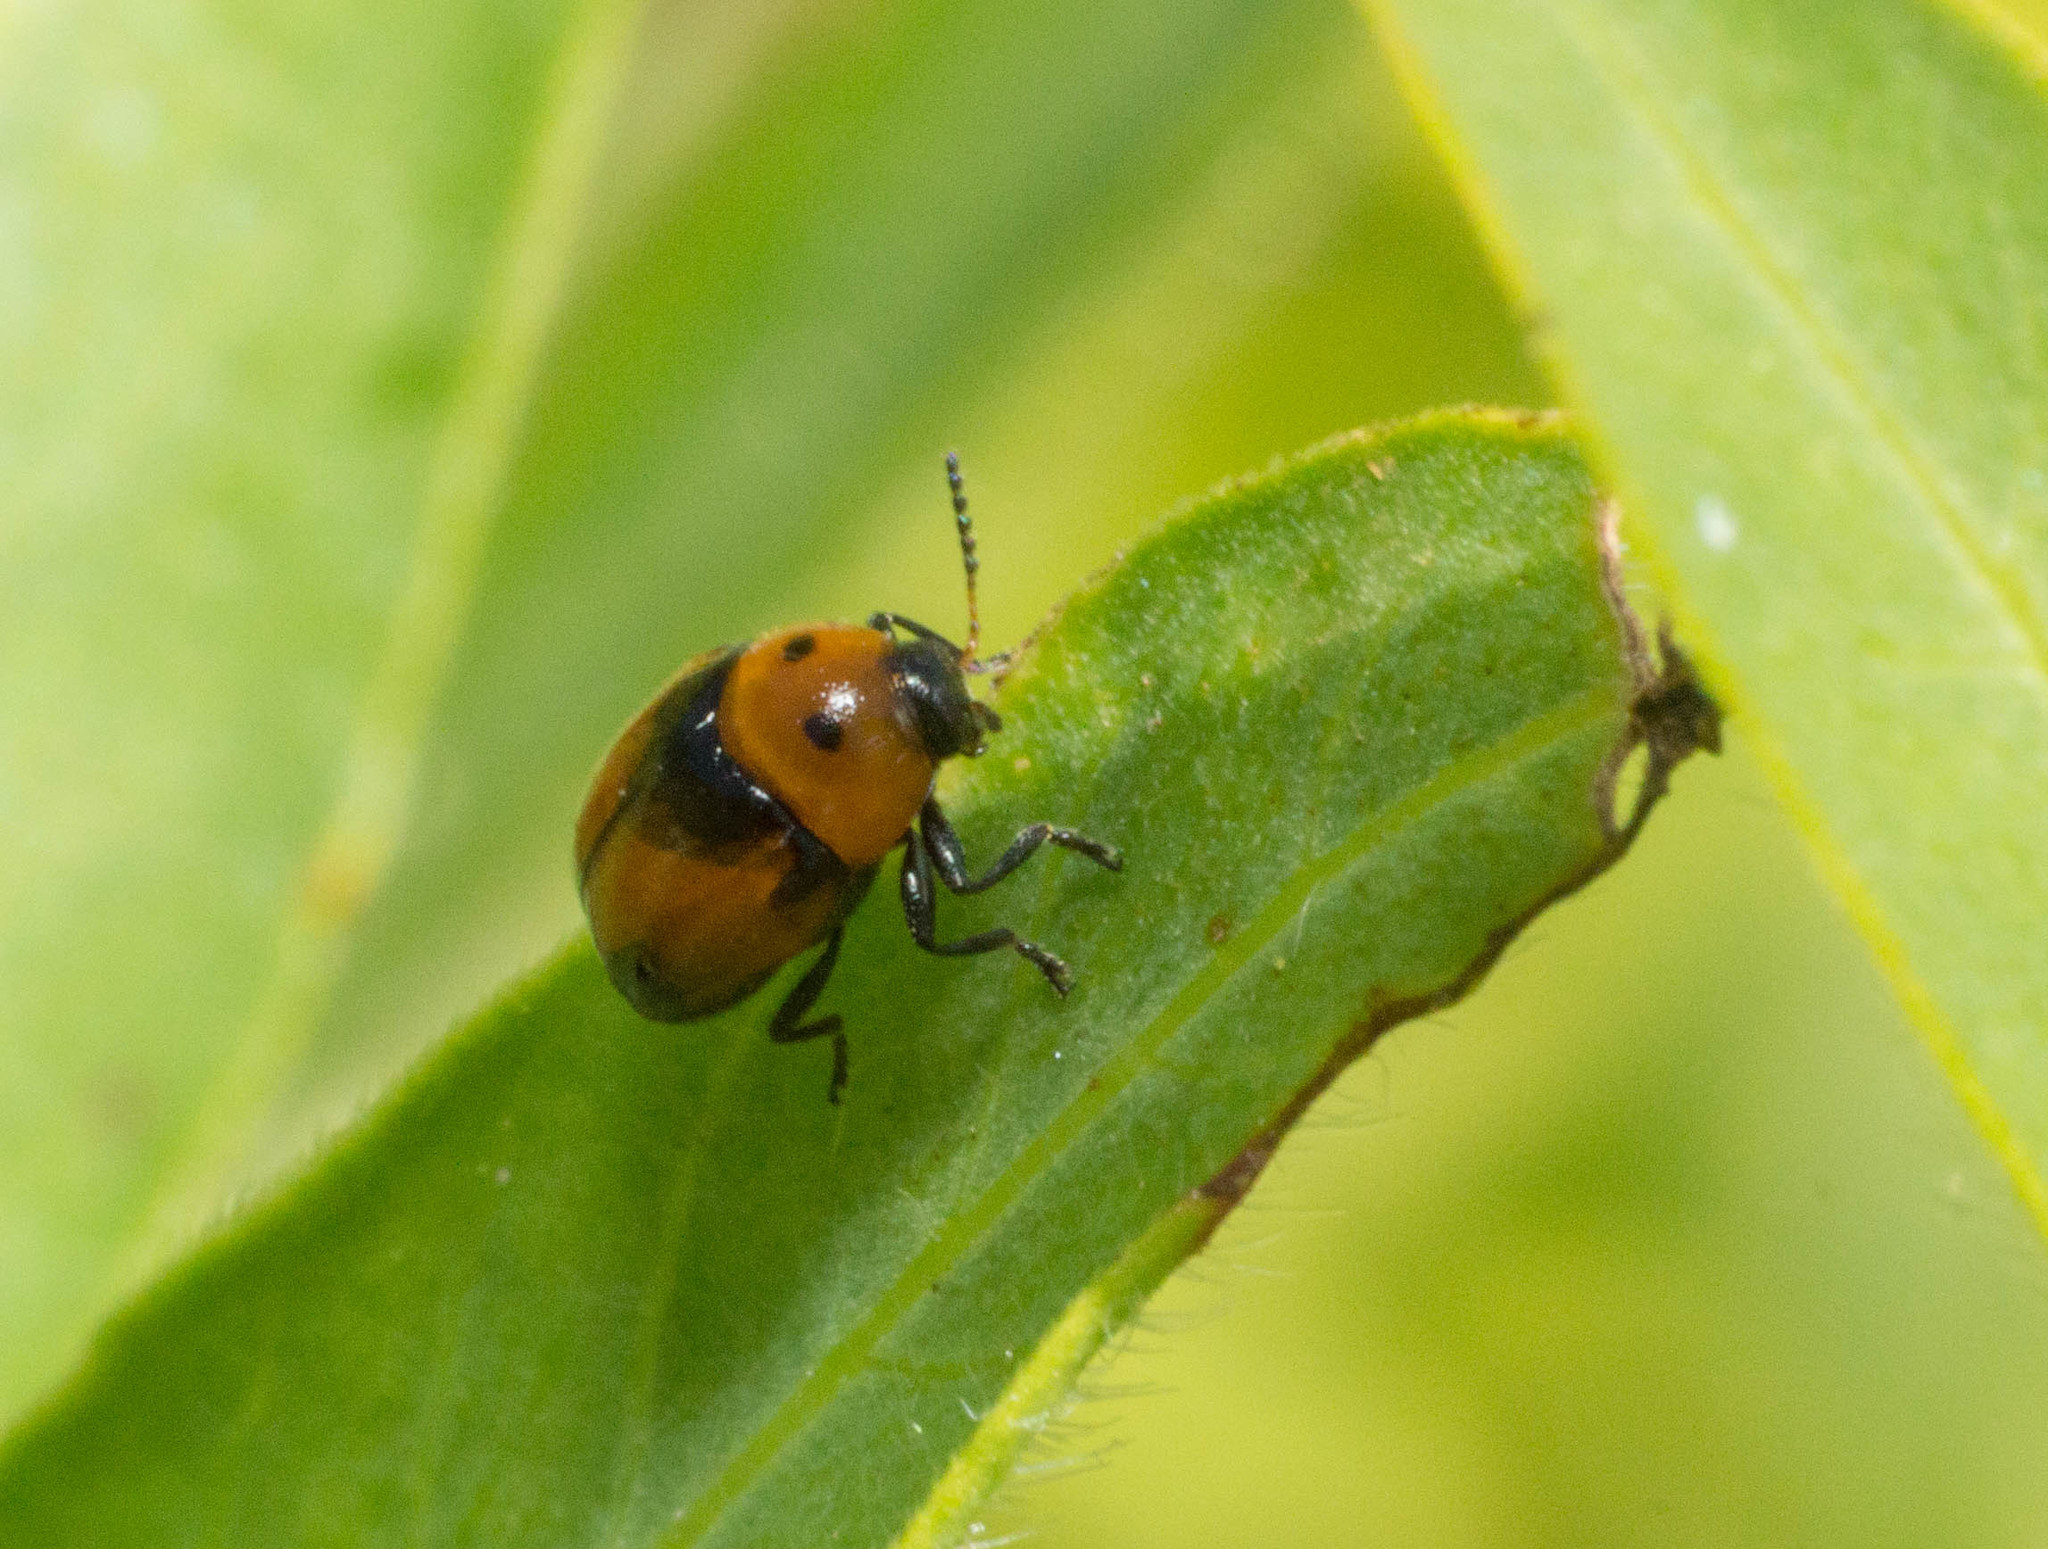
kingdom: Animalia
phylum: Arthropoda
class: Insecta
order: Coleoptera
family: Chrysomelidae
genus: Lexiphanes
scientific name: Lexiphanes
